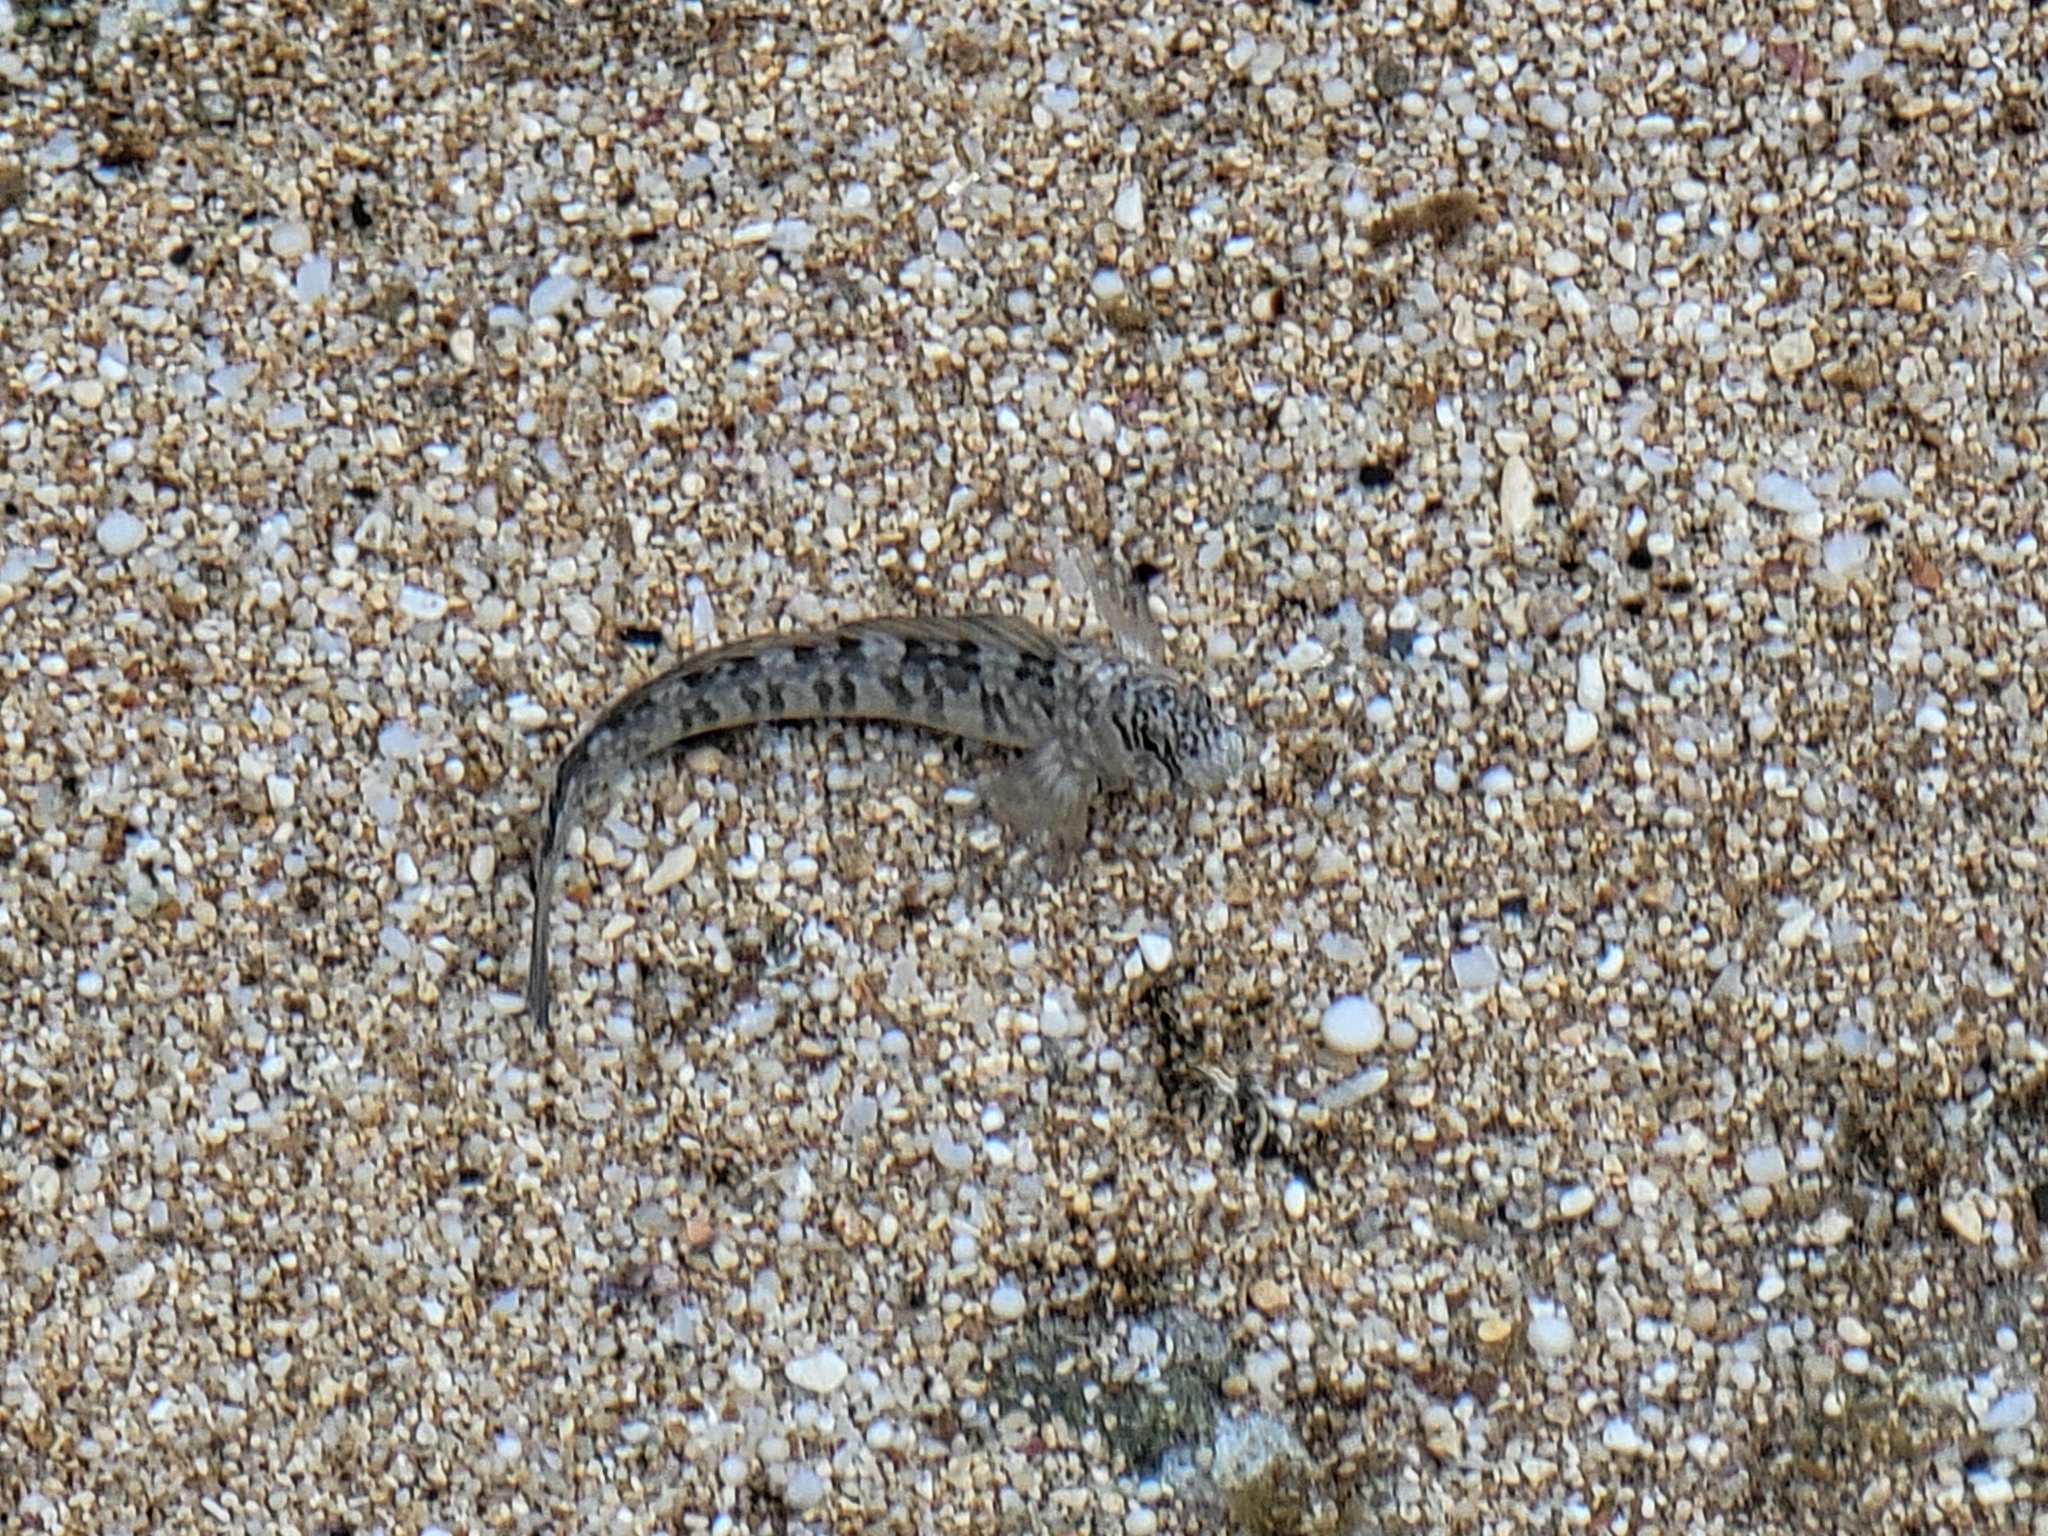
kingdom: Animalia
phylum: Chordata
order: Perciformes
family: Blenniidae
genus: Istiblennius
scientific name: Istiblennius zebra
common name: Zebra blenny
